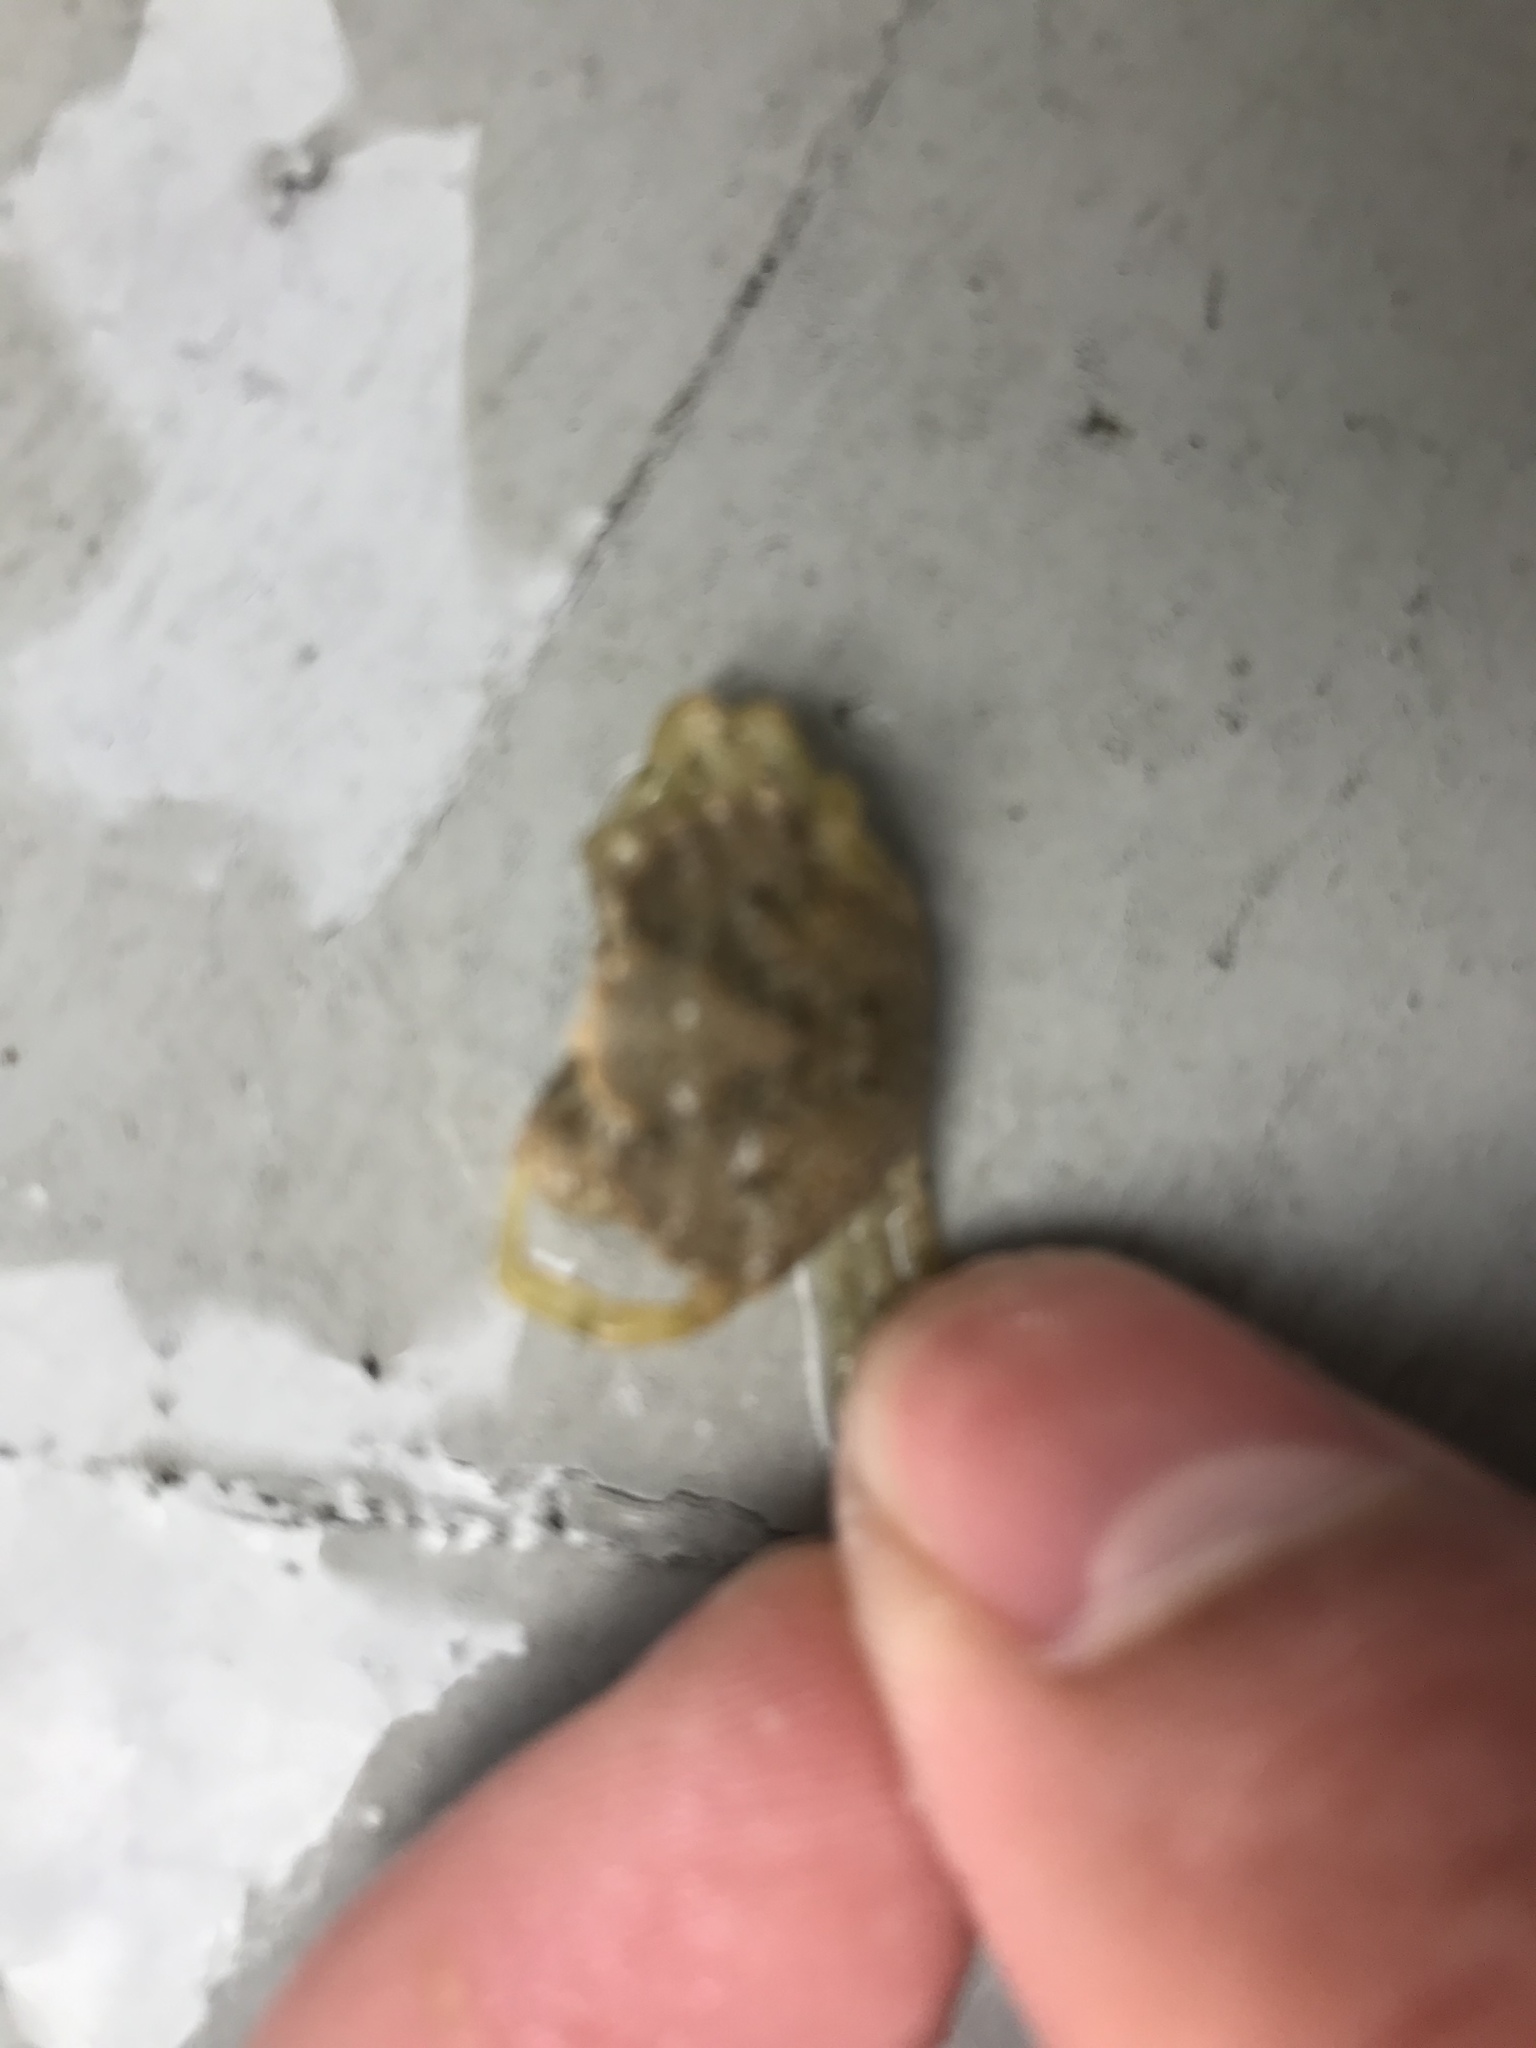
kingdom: Animalia
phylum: Arthropoda
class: Malacostraca
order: Decapoda
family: Carcinidae
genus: Carcinus
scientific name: Carcinus maenas
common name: European green crab
